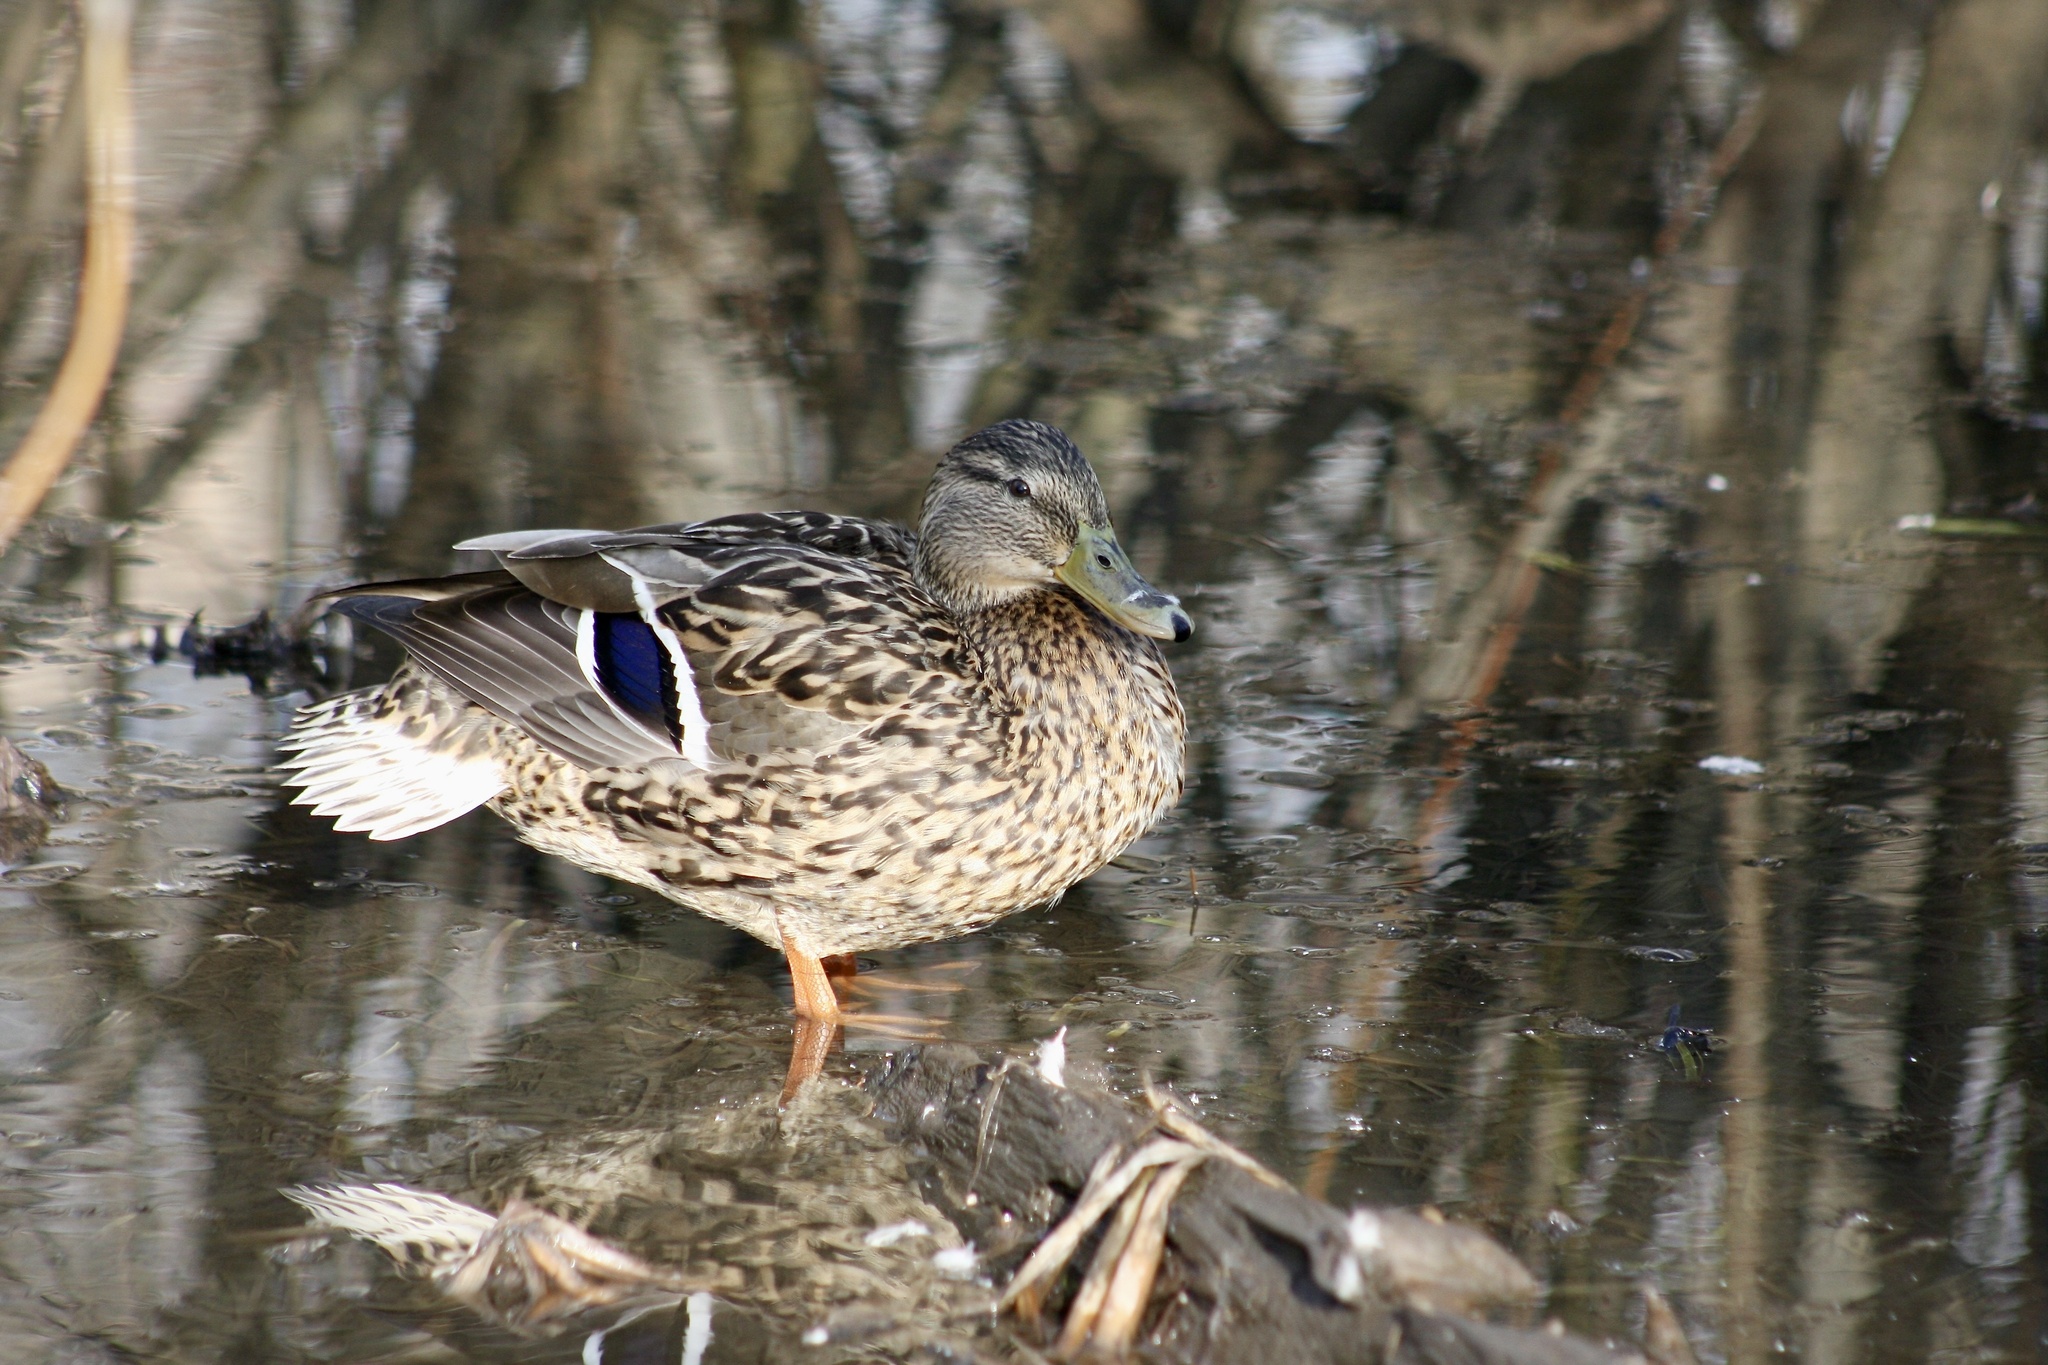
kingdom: Animalia
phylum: Chordata
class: Aves
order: Anseriformes
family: Anatidae
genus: Anas
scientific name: Anas platyrhynchos
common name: Mallard
